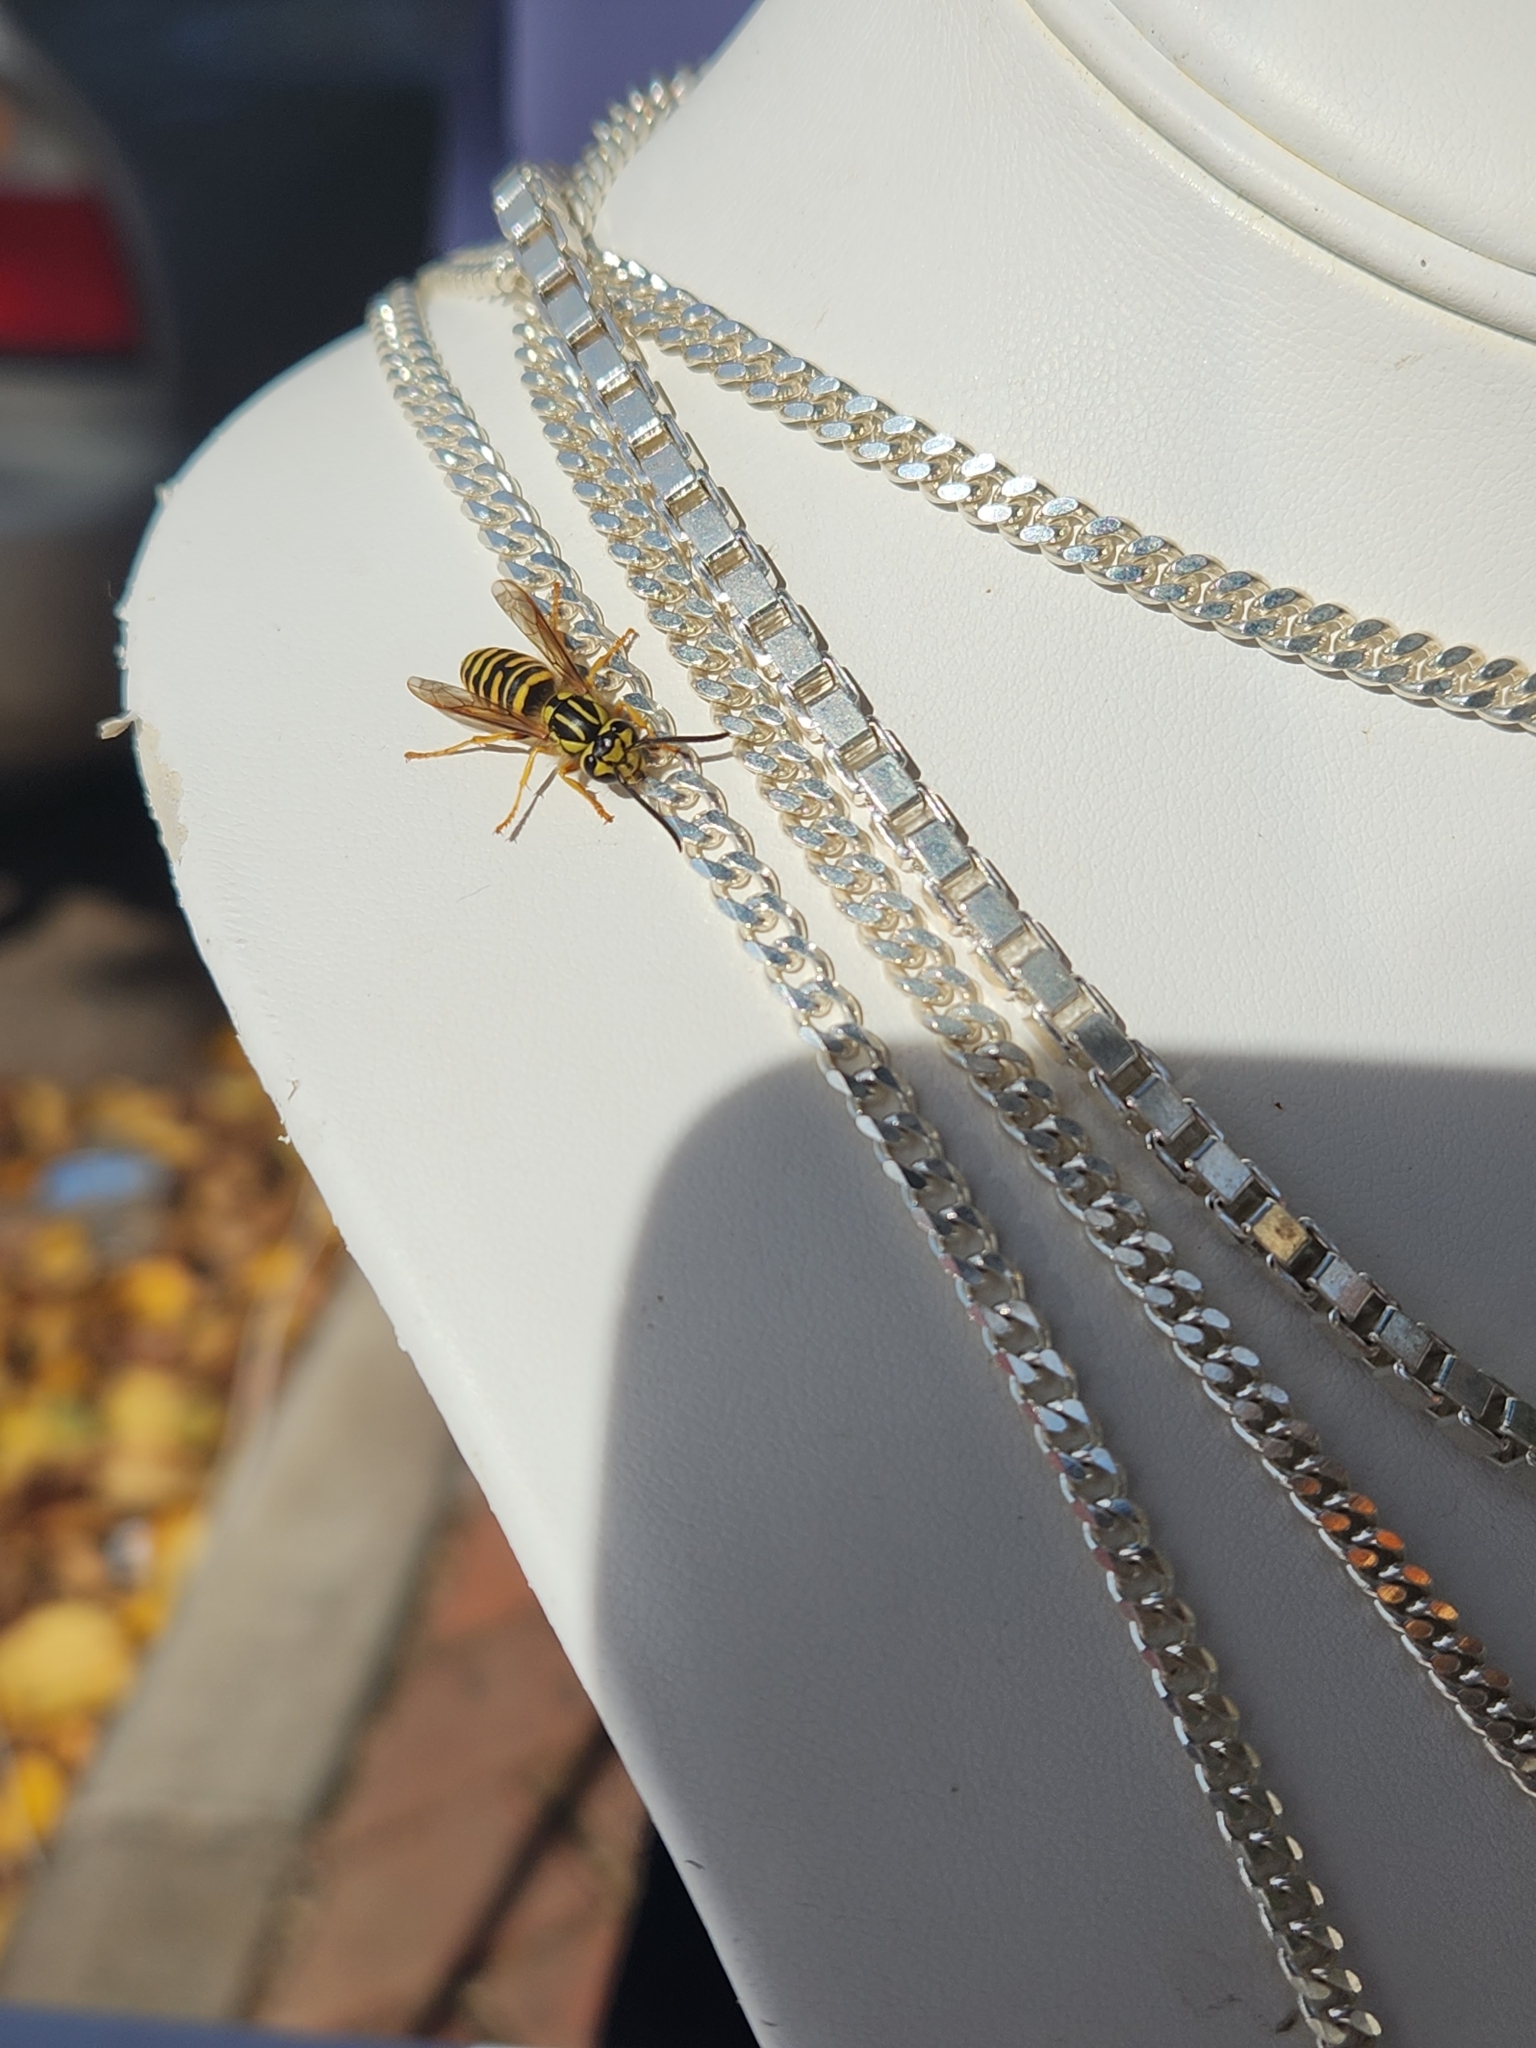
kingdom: Animalia
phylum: Arthropoda
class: Insecta
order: Hymenoptera
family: Vespidae
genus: Vespula
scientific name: Vespula squamosa
